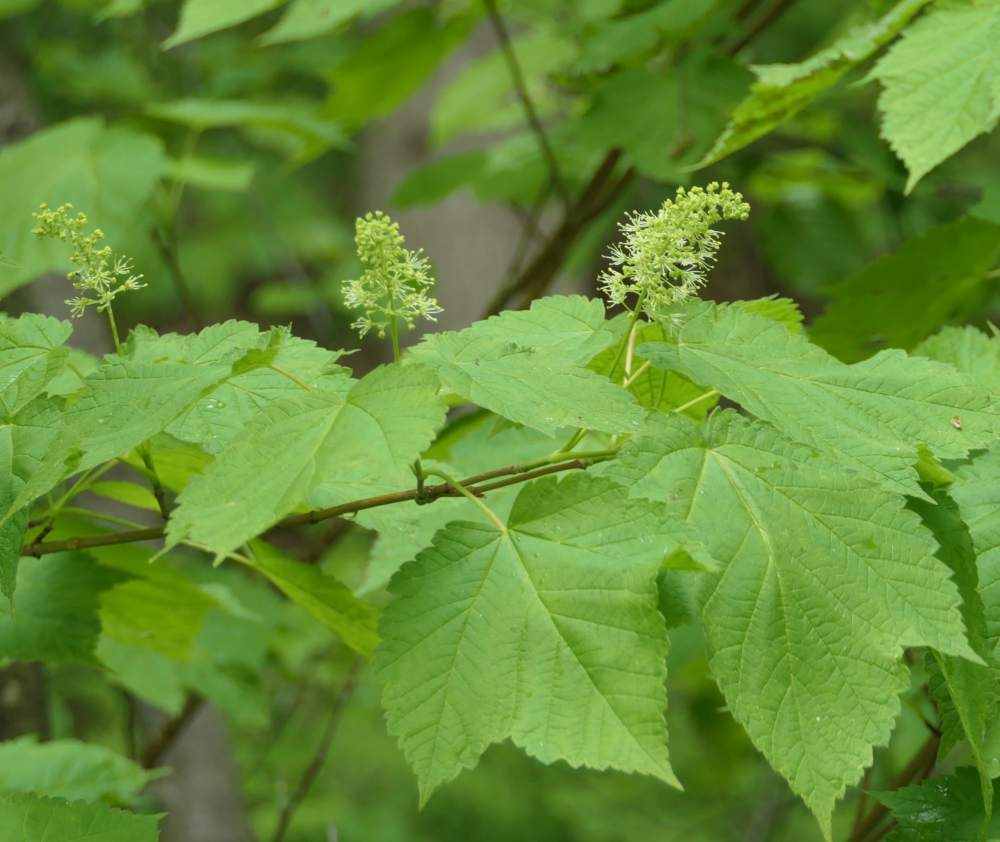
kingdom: Plantae
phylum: Tracheophyta
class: Magnoliopsida
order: Sapindales
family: Sapindaceae
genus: Acer
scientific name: Acer spicatum
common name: Mountain maple
